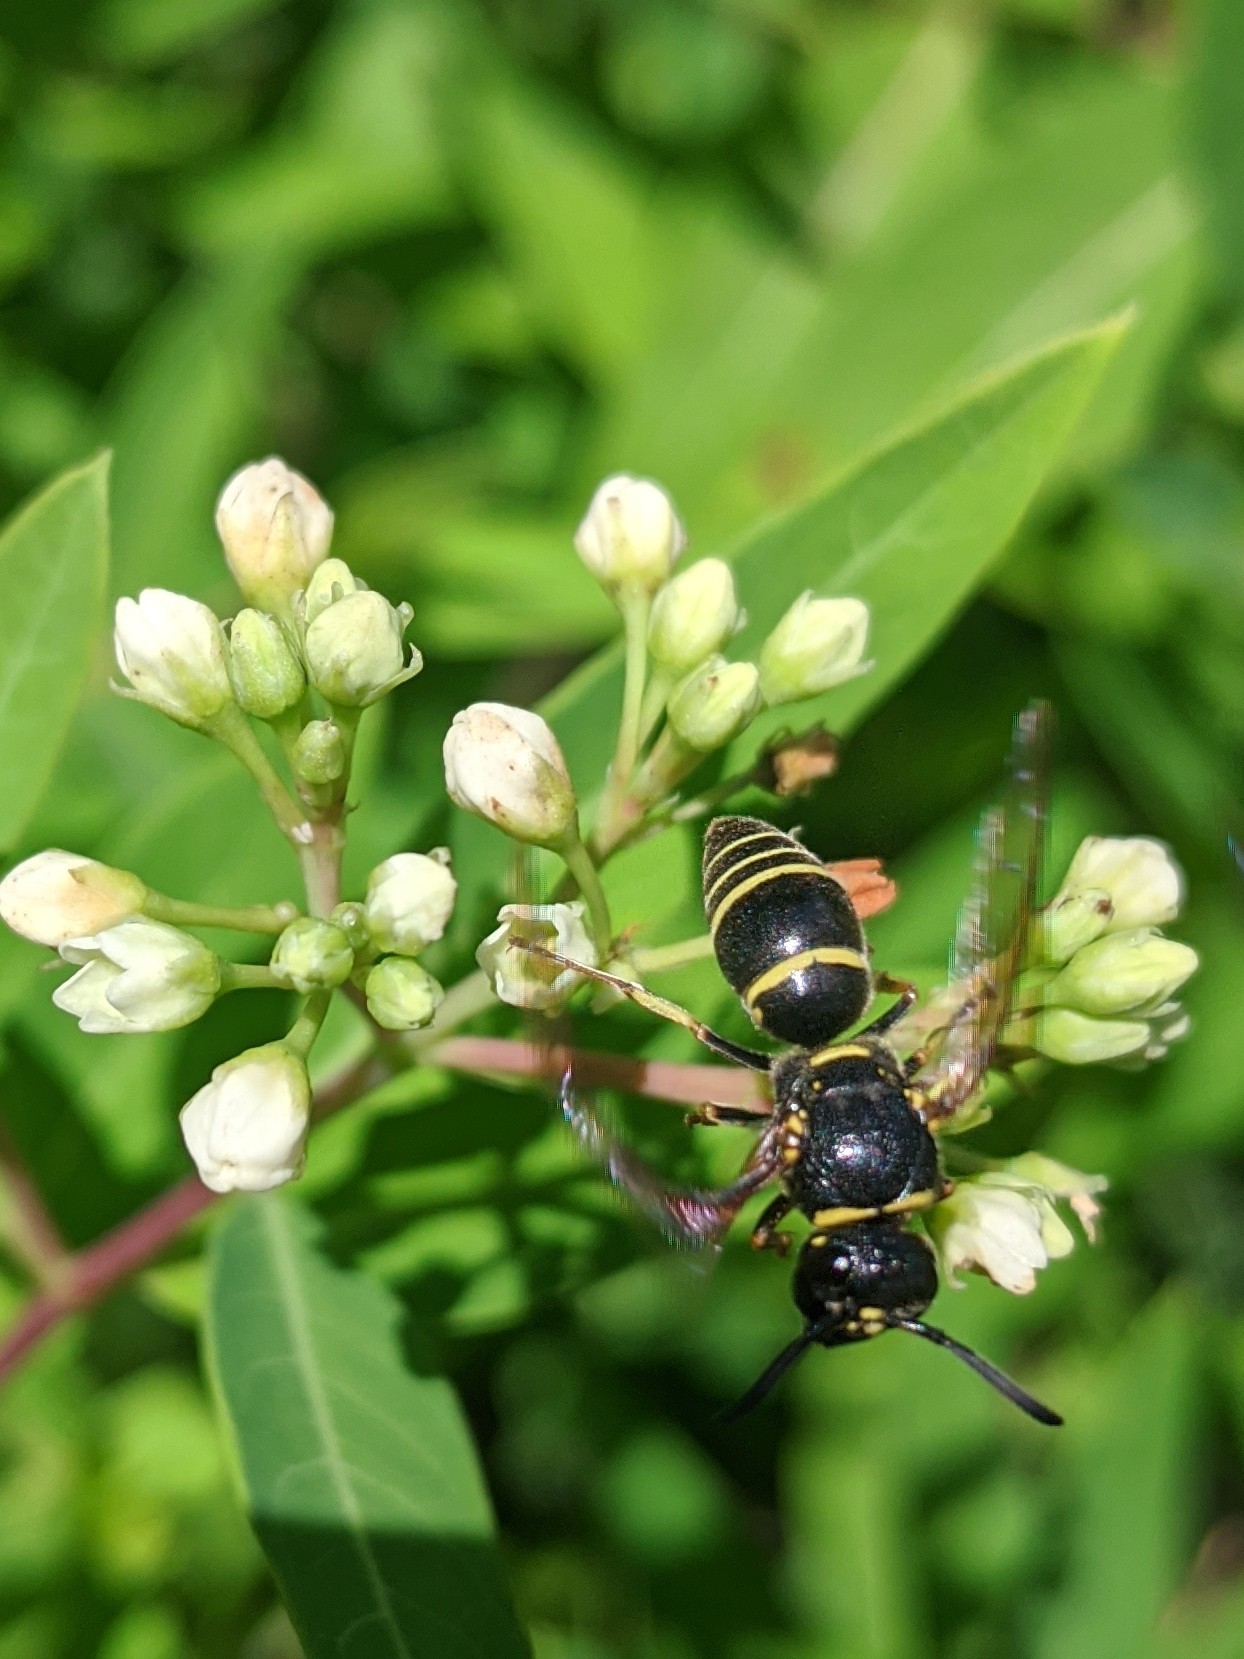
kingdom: Animalia
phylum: Arthropoda
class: Insecta
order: Hymenoptera
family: Eumenidae
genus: Euodynerus
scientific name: Euodynerus foraminatus
